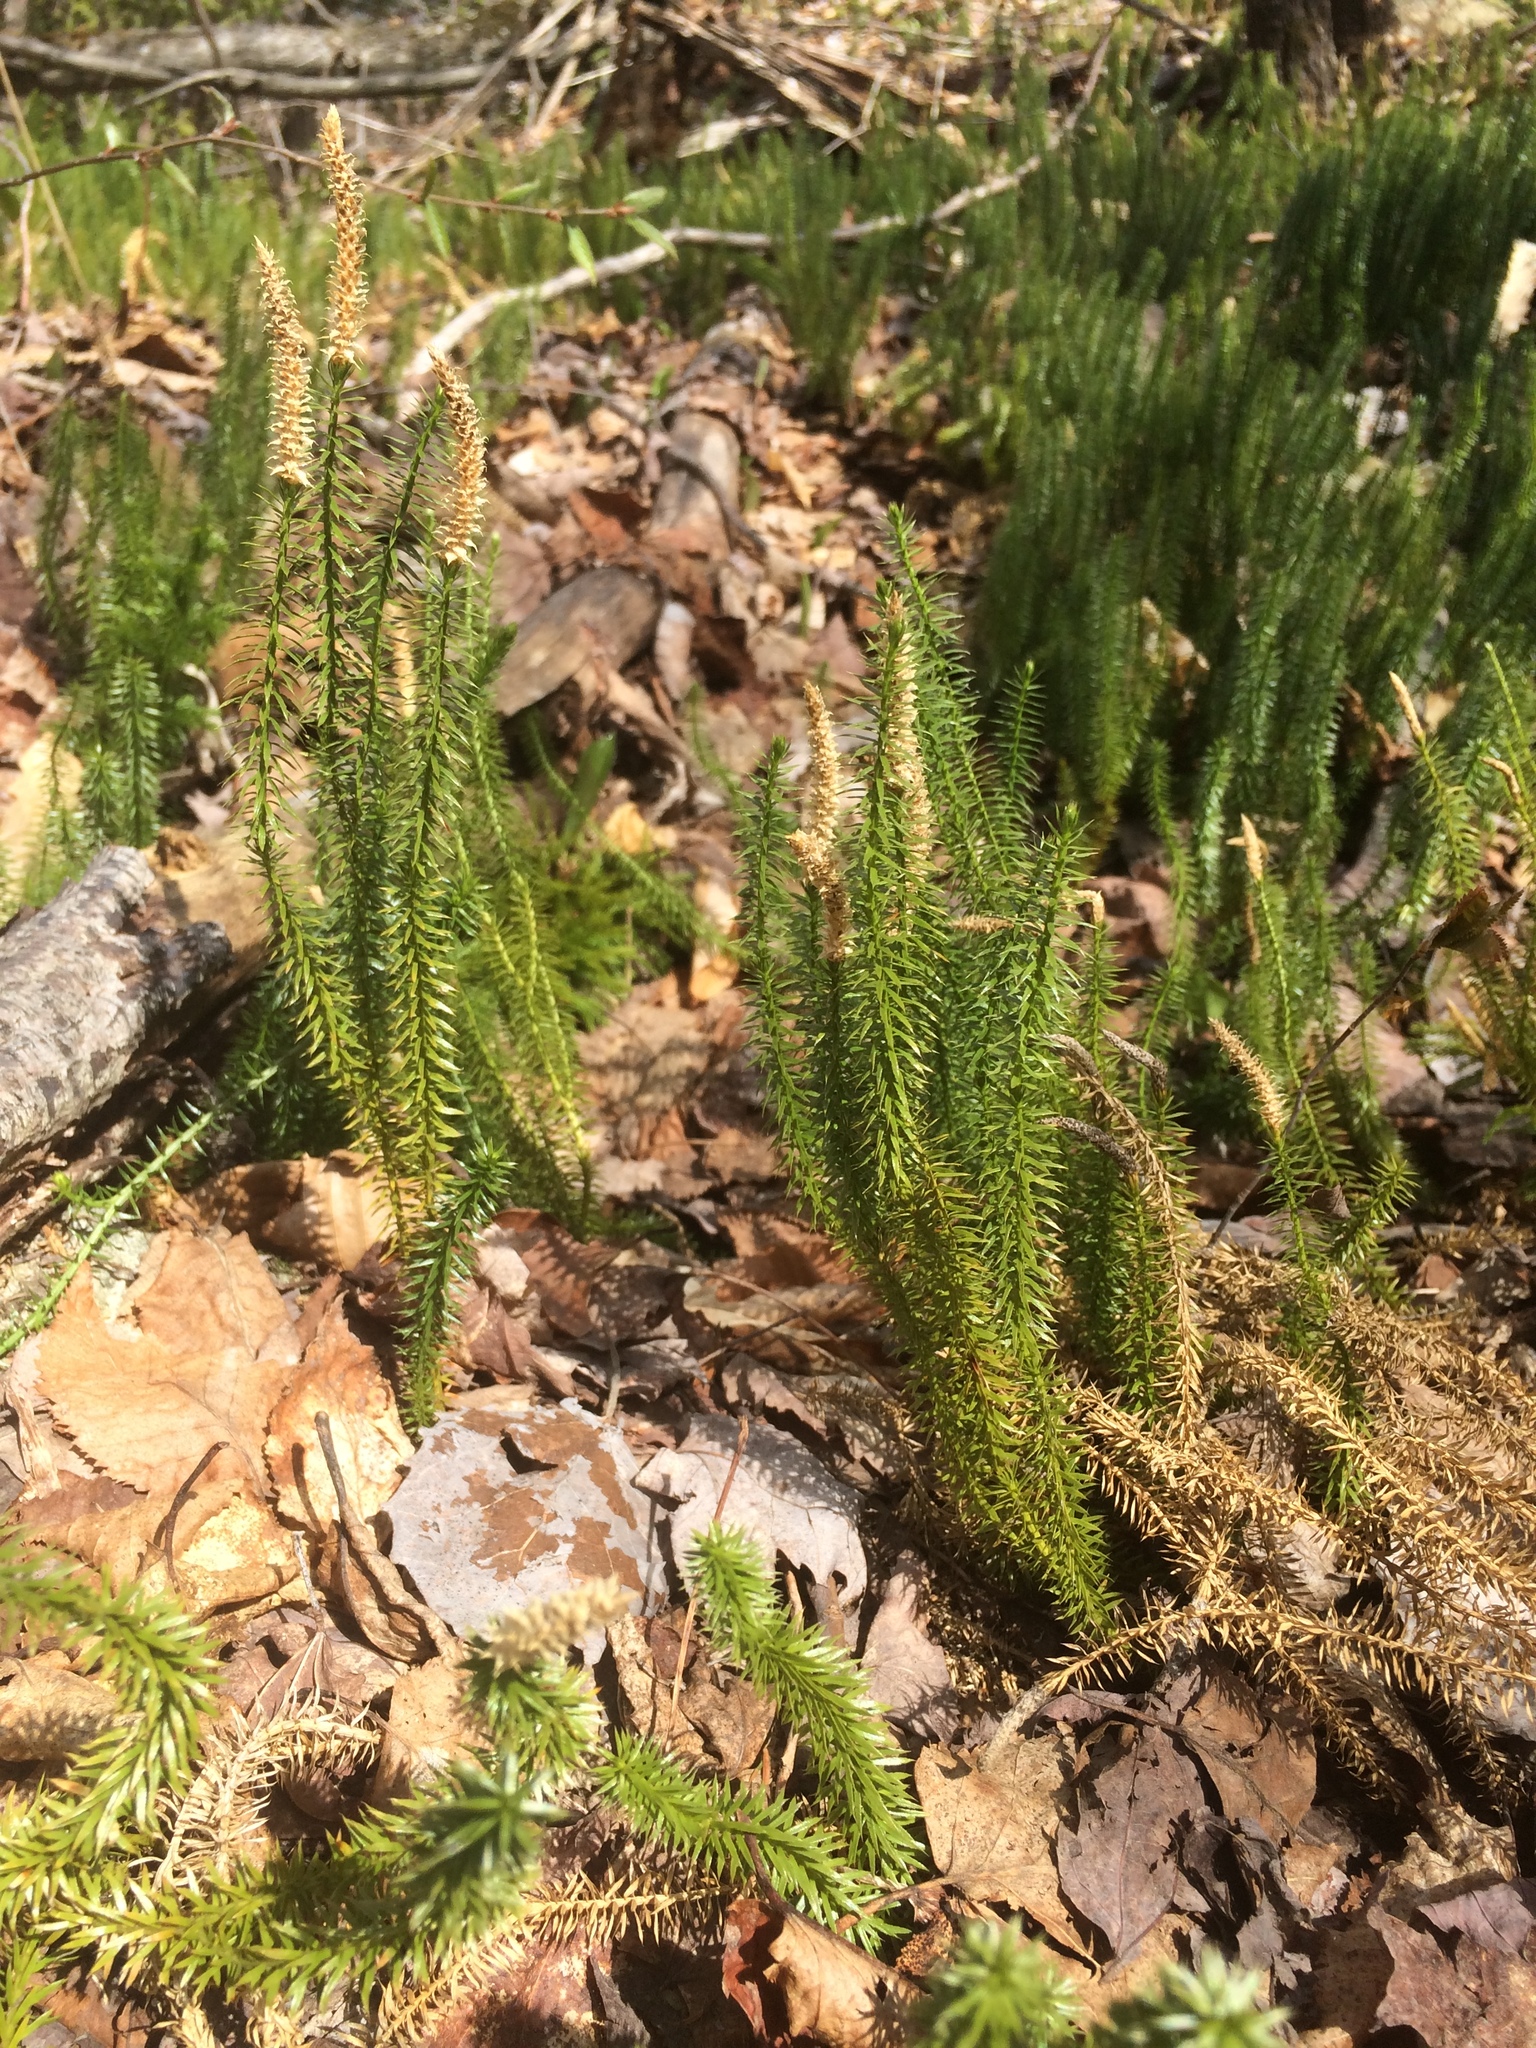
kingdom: Plantae
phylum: Tracheophyta
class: Lycopodiopsida
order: Lycopodiales
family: Lycopodiaceae
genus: Spinulum
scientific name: Spinulum annotinum
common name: Interrupted club-moss
